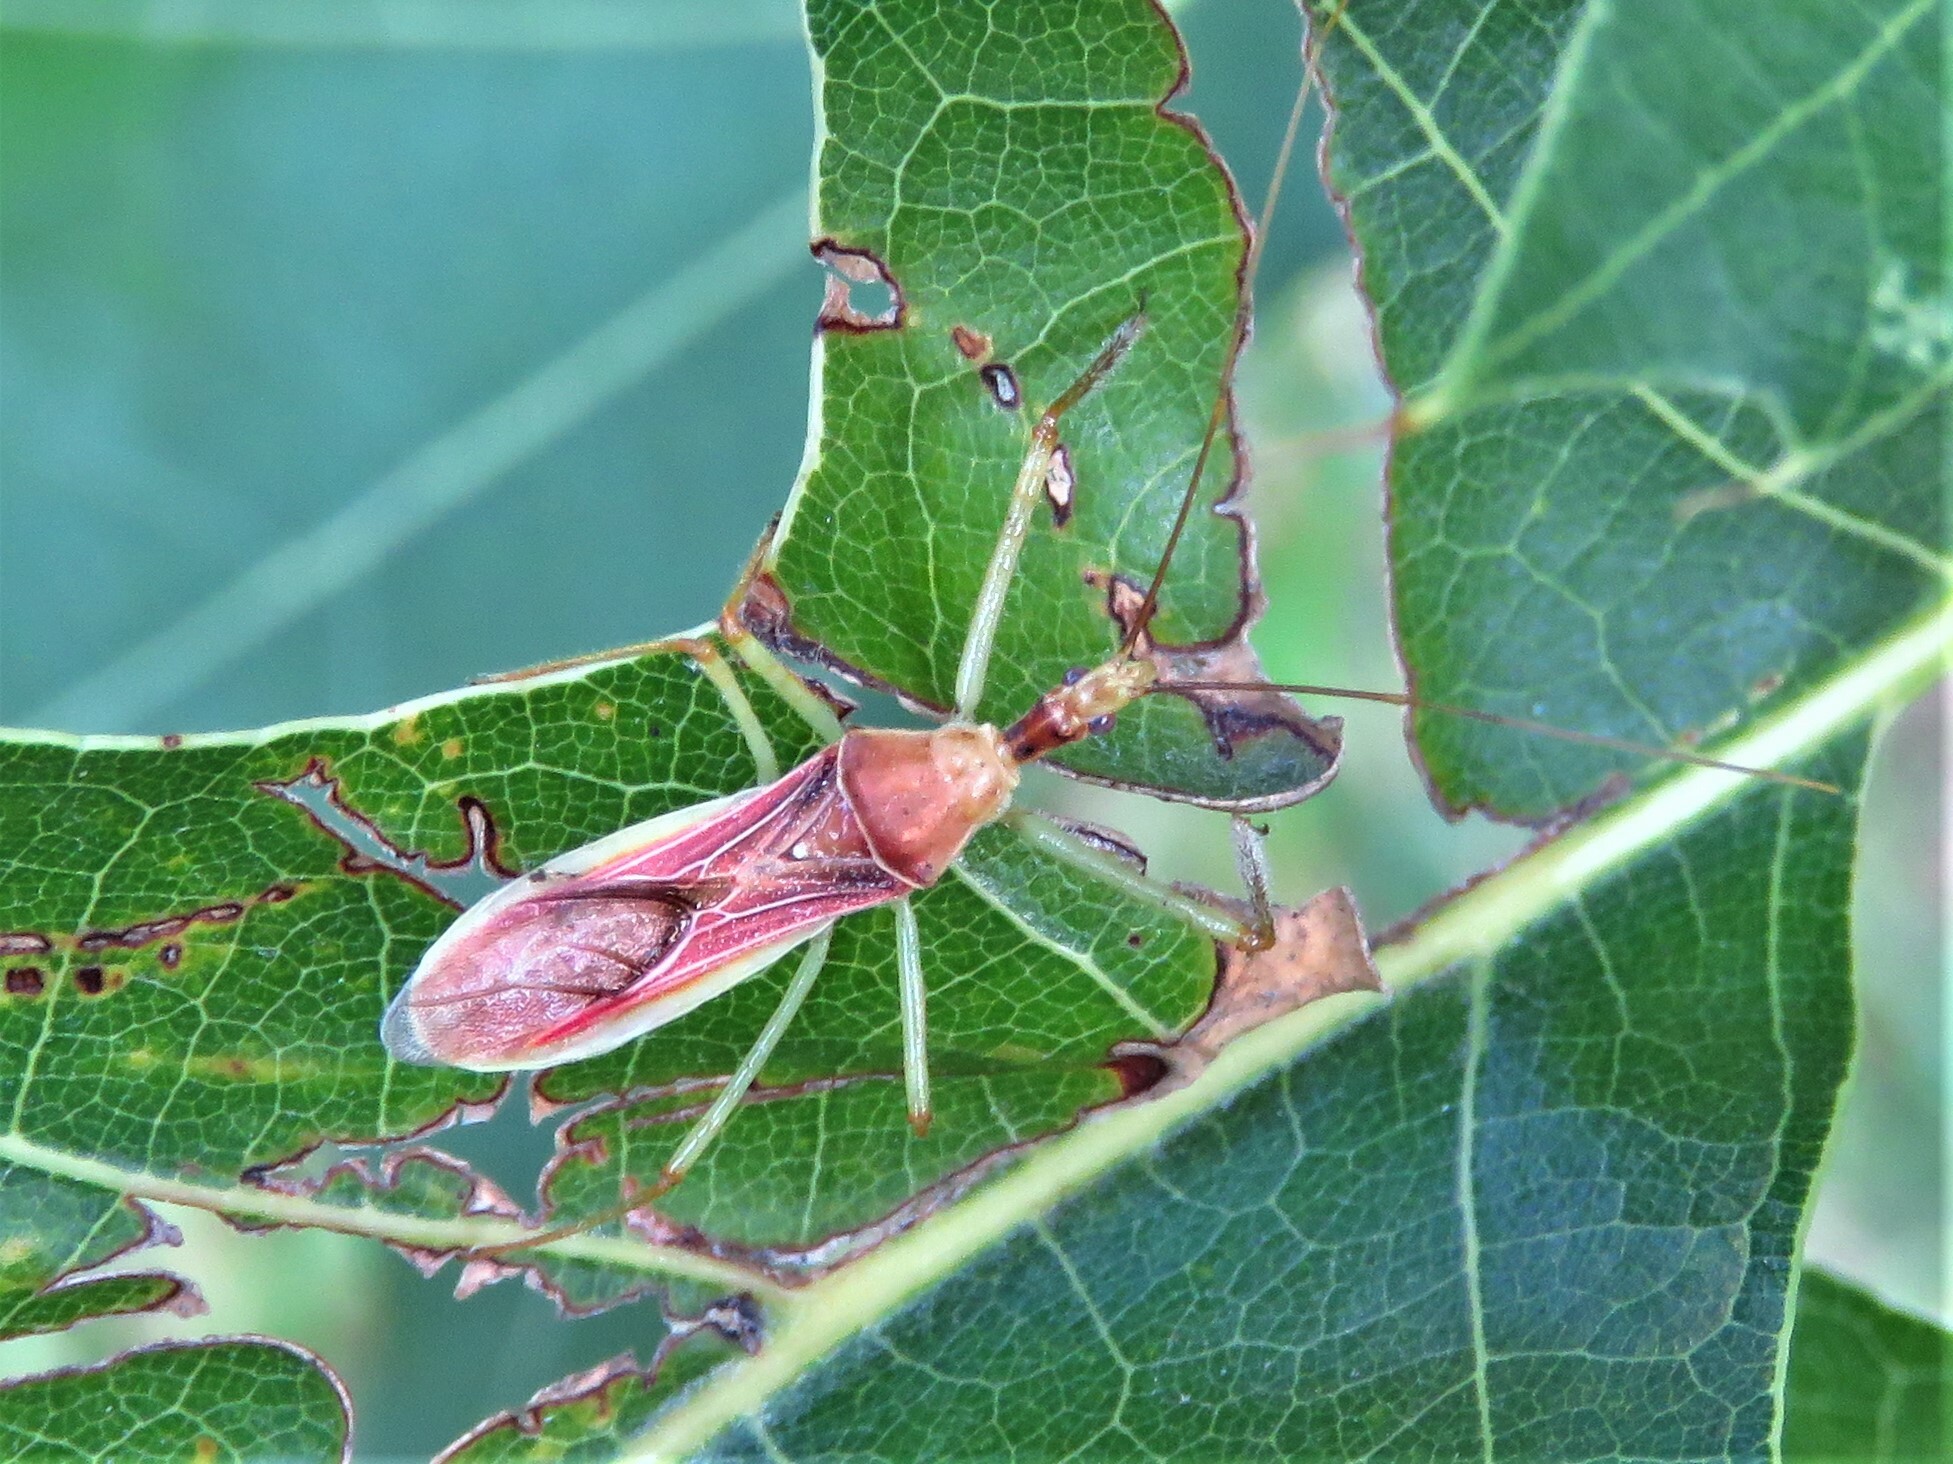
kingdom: Animalia
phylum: Arthropoda
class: Insecta
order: Hemiptera
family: Reduviidae
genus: Zelus
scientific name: Zelus renardii
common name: Assassin bug
